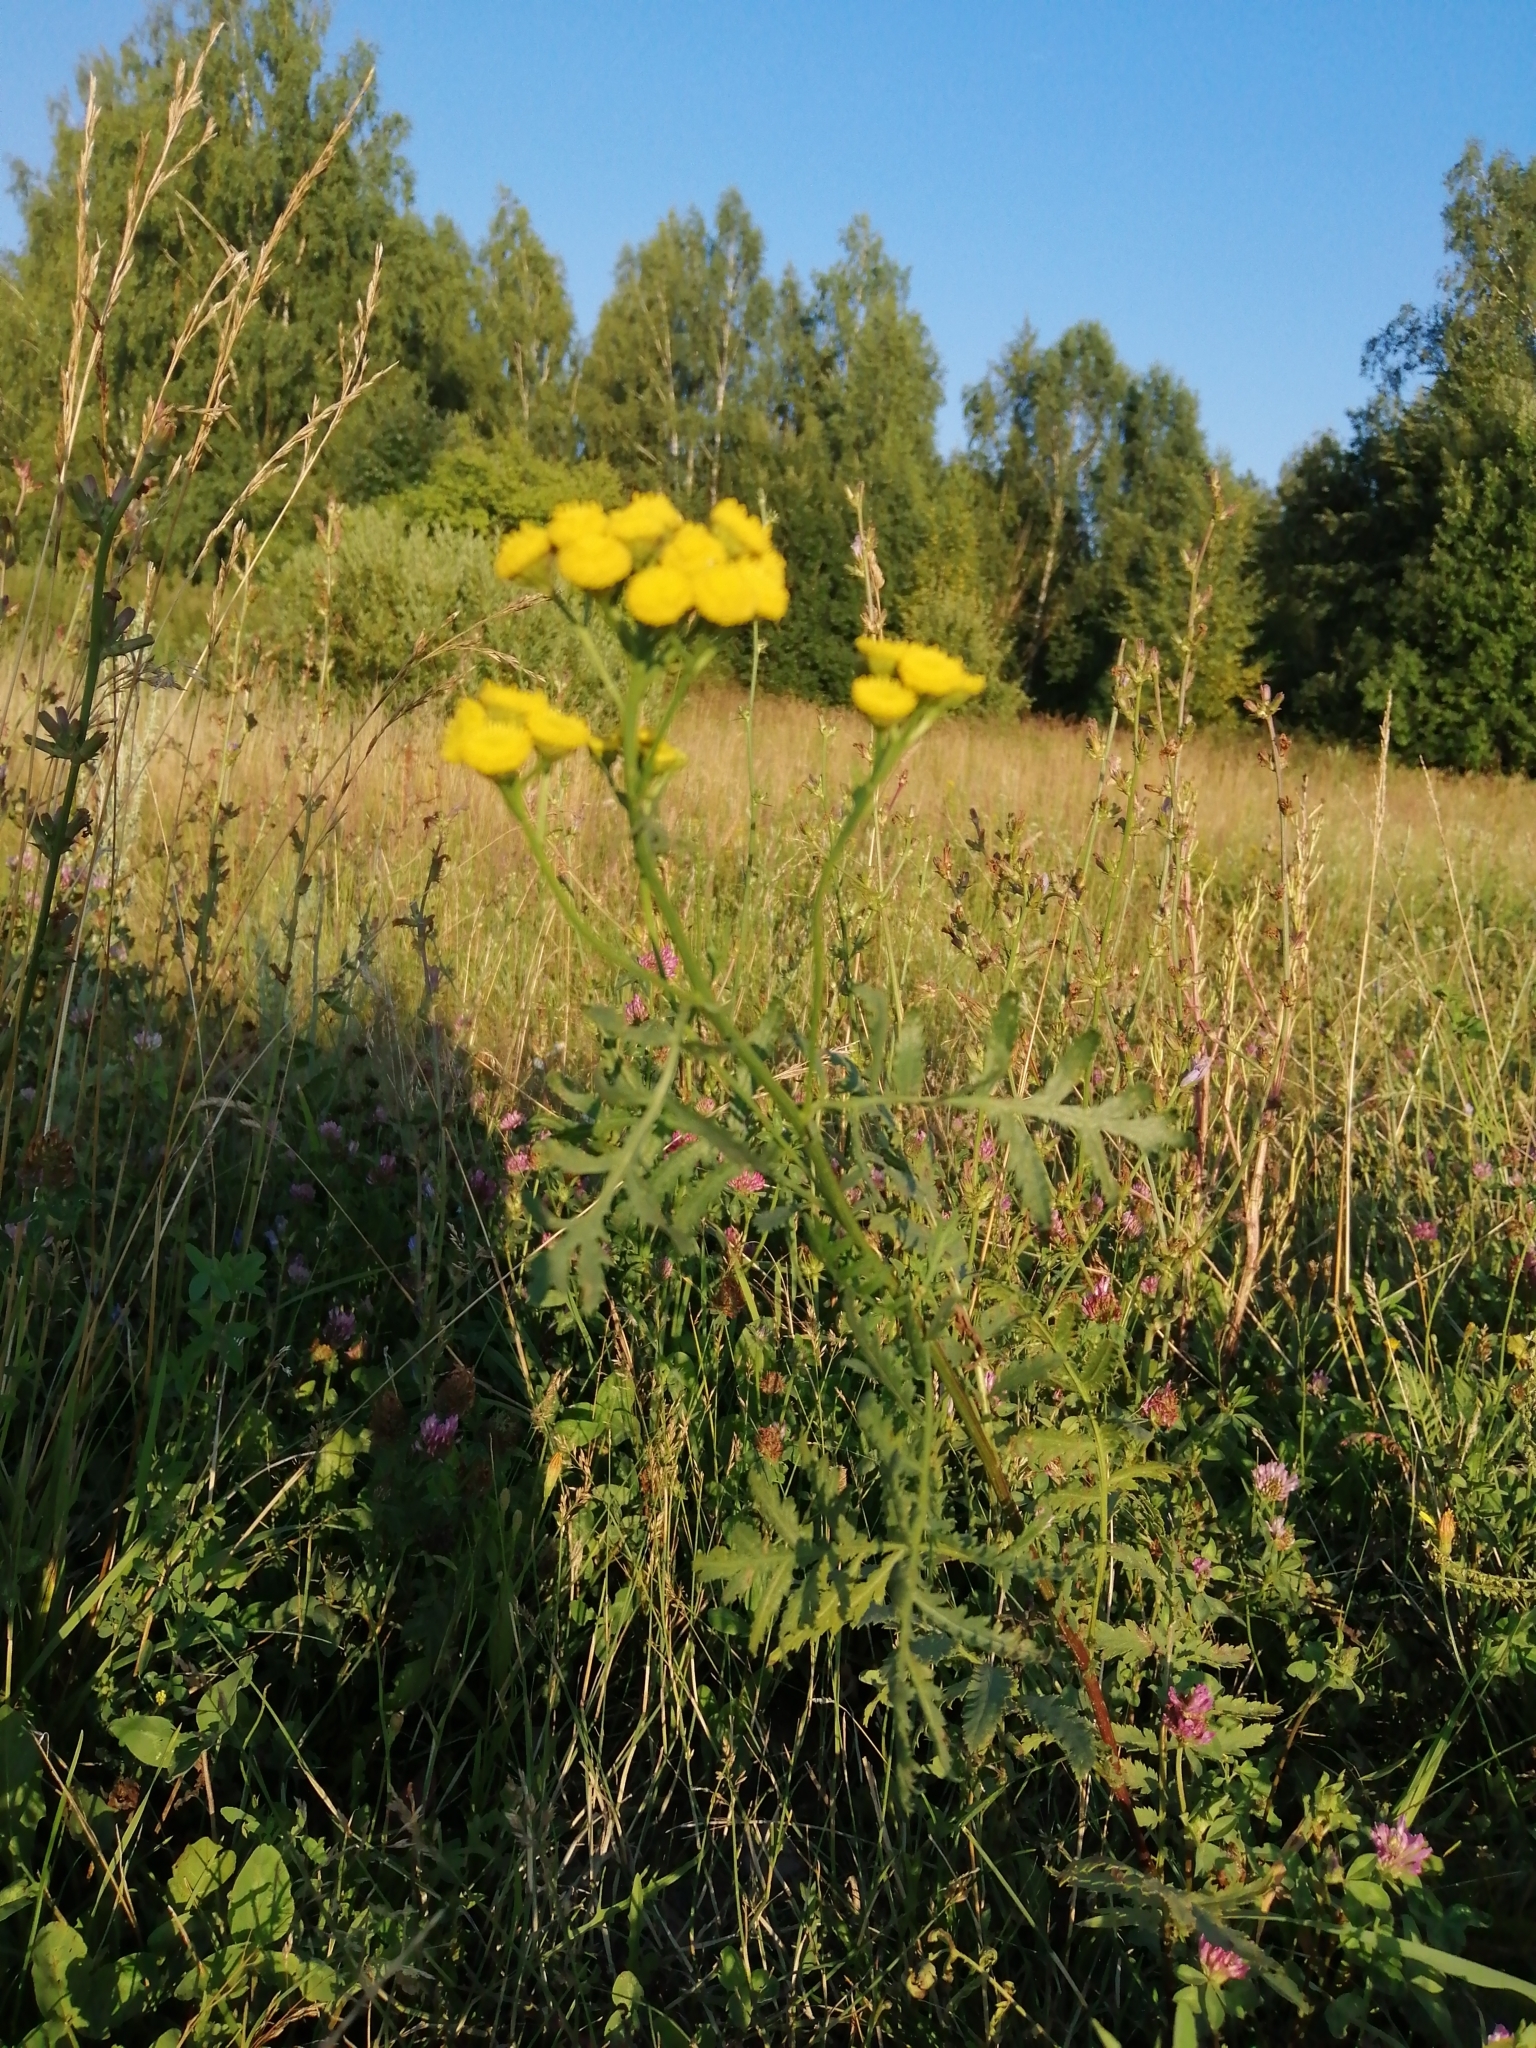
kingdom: Plantae
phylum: Tracheophyta
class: Magnoliopsida
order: Asterales
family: Asteraceae
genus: Tanacetum
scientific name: Tanacetum vulgare
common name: Common tansy
